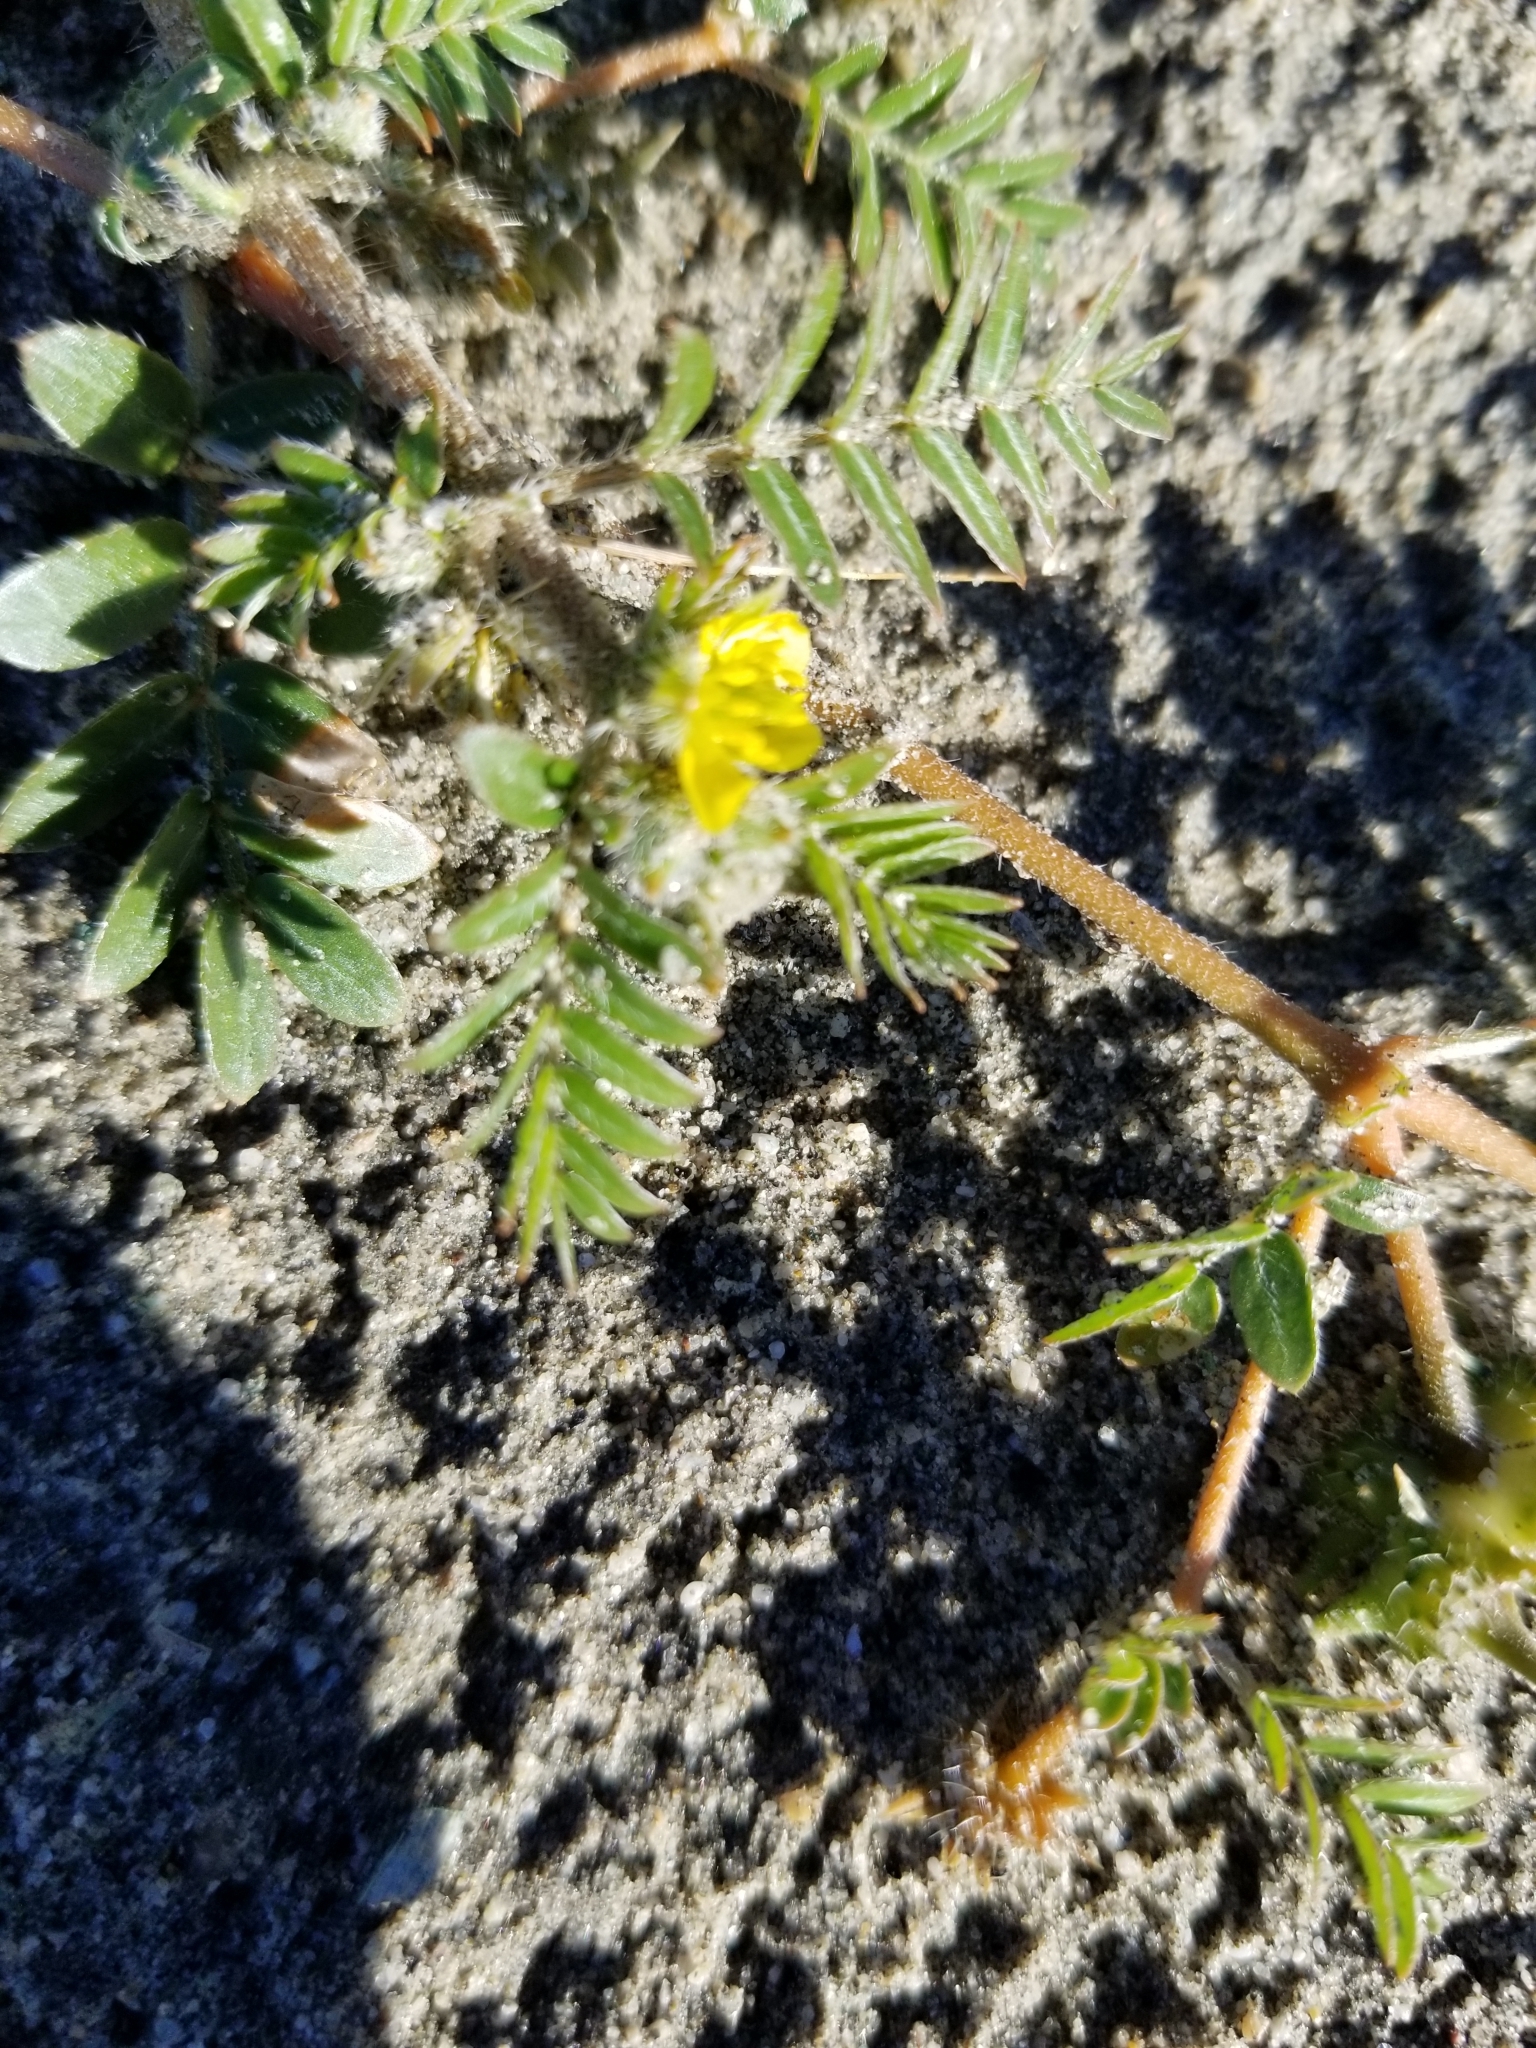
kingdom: Plantae
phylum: Tracheophyta
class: Magnoliopsida
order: Zygophyllales
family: Zygophyllaceae
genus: Tribulus
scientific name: Tribulus terrestris
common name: Puncturevine
